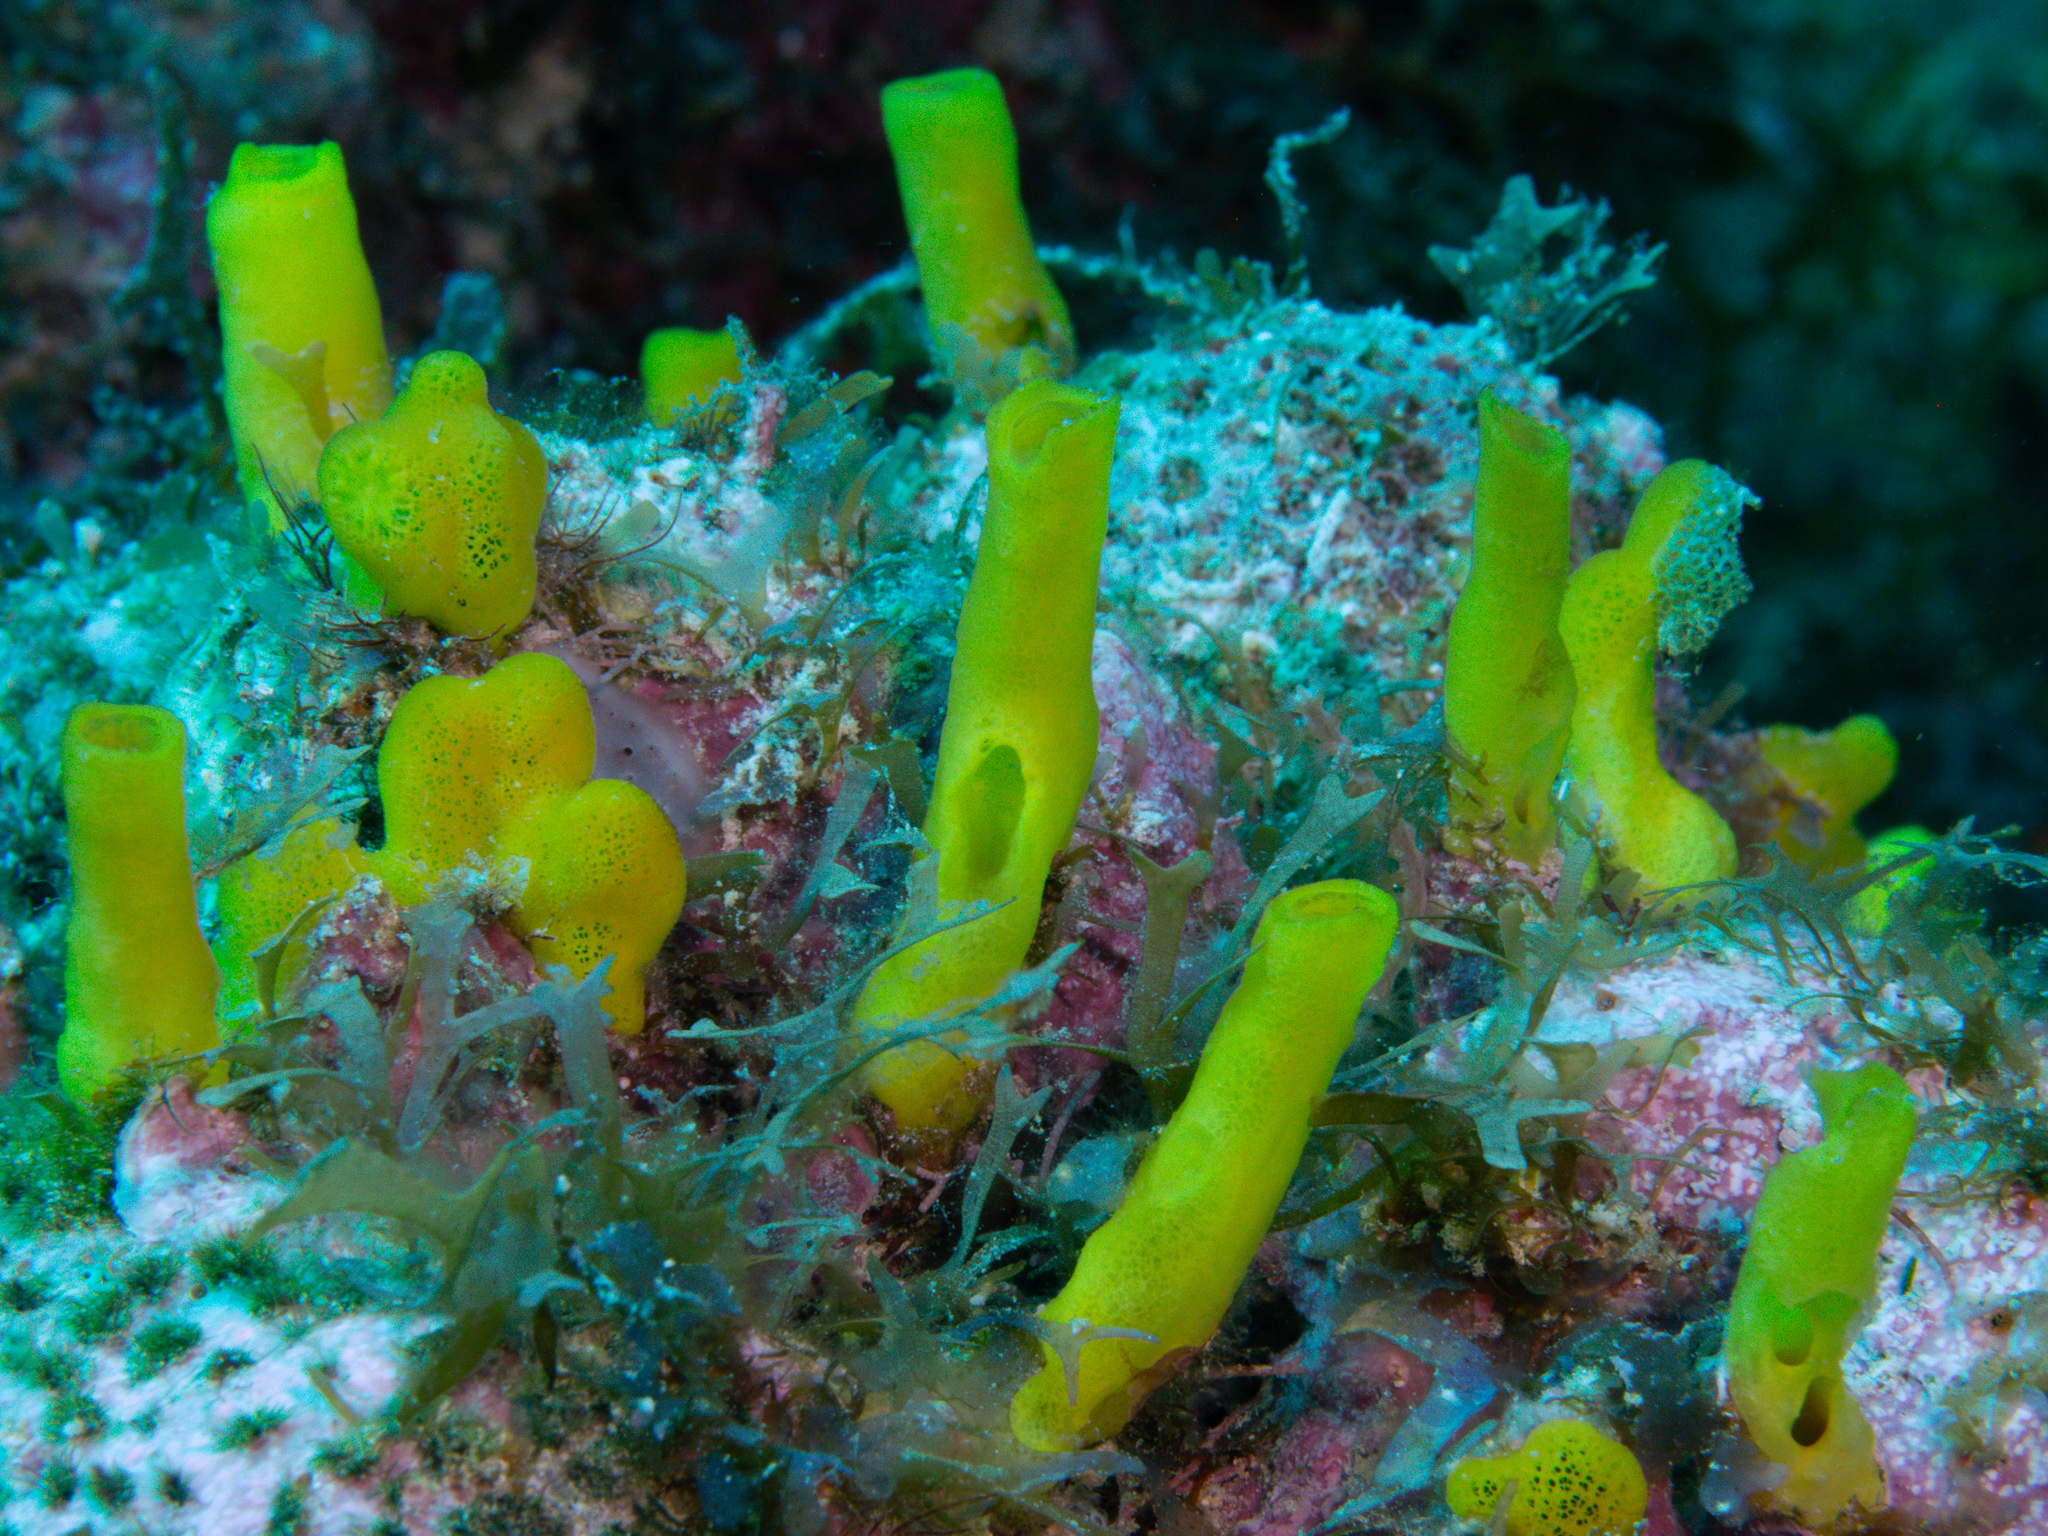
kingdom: Animalia
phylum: Porifera
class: Demospongiae
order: Haplosclerida
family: Phloeodictyidae
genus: Siphonodictyon
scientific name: Siphonodictyon coralliphagum
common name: Coral-eating boring sponge
